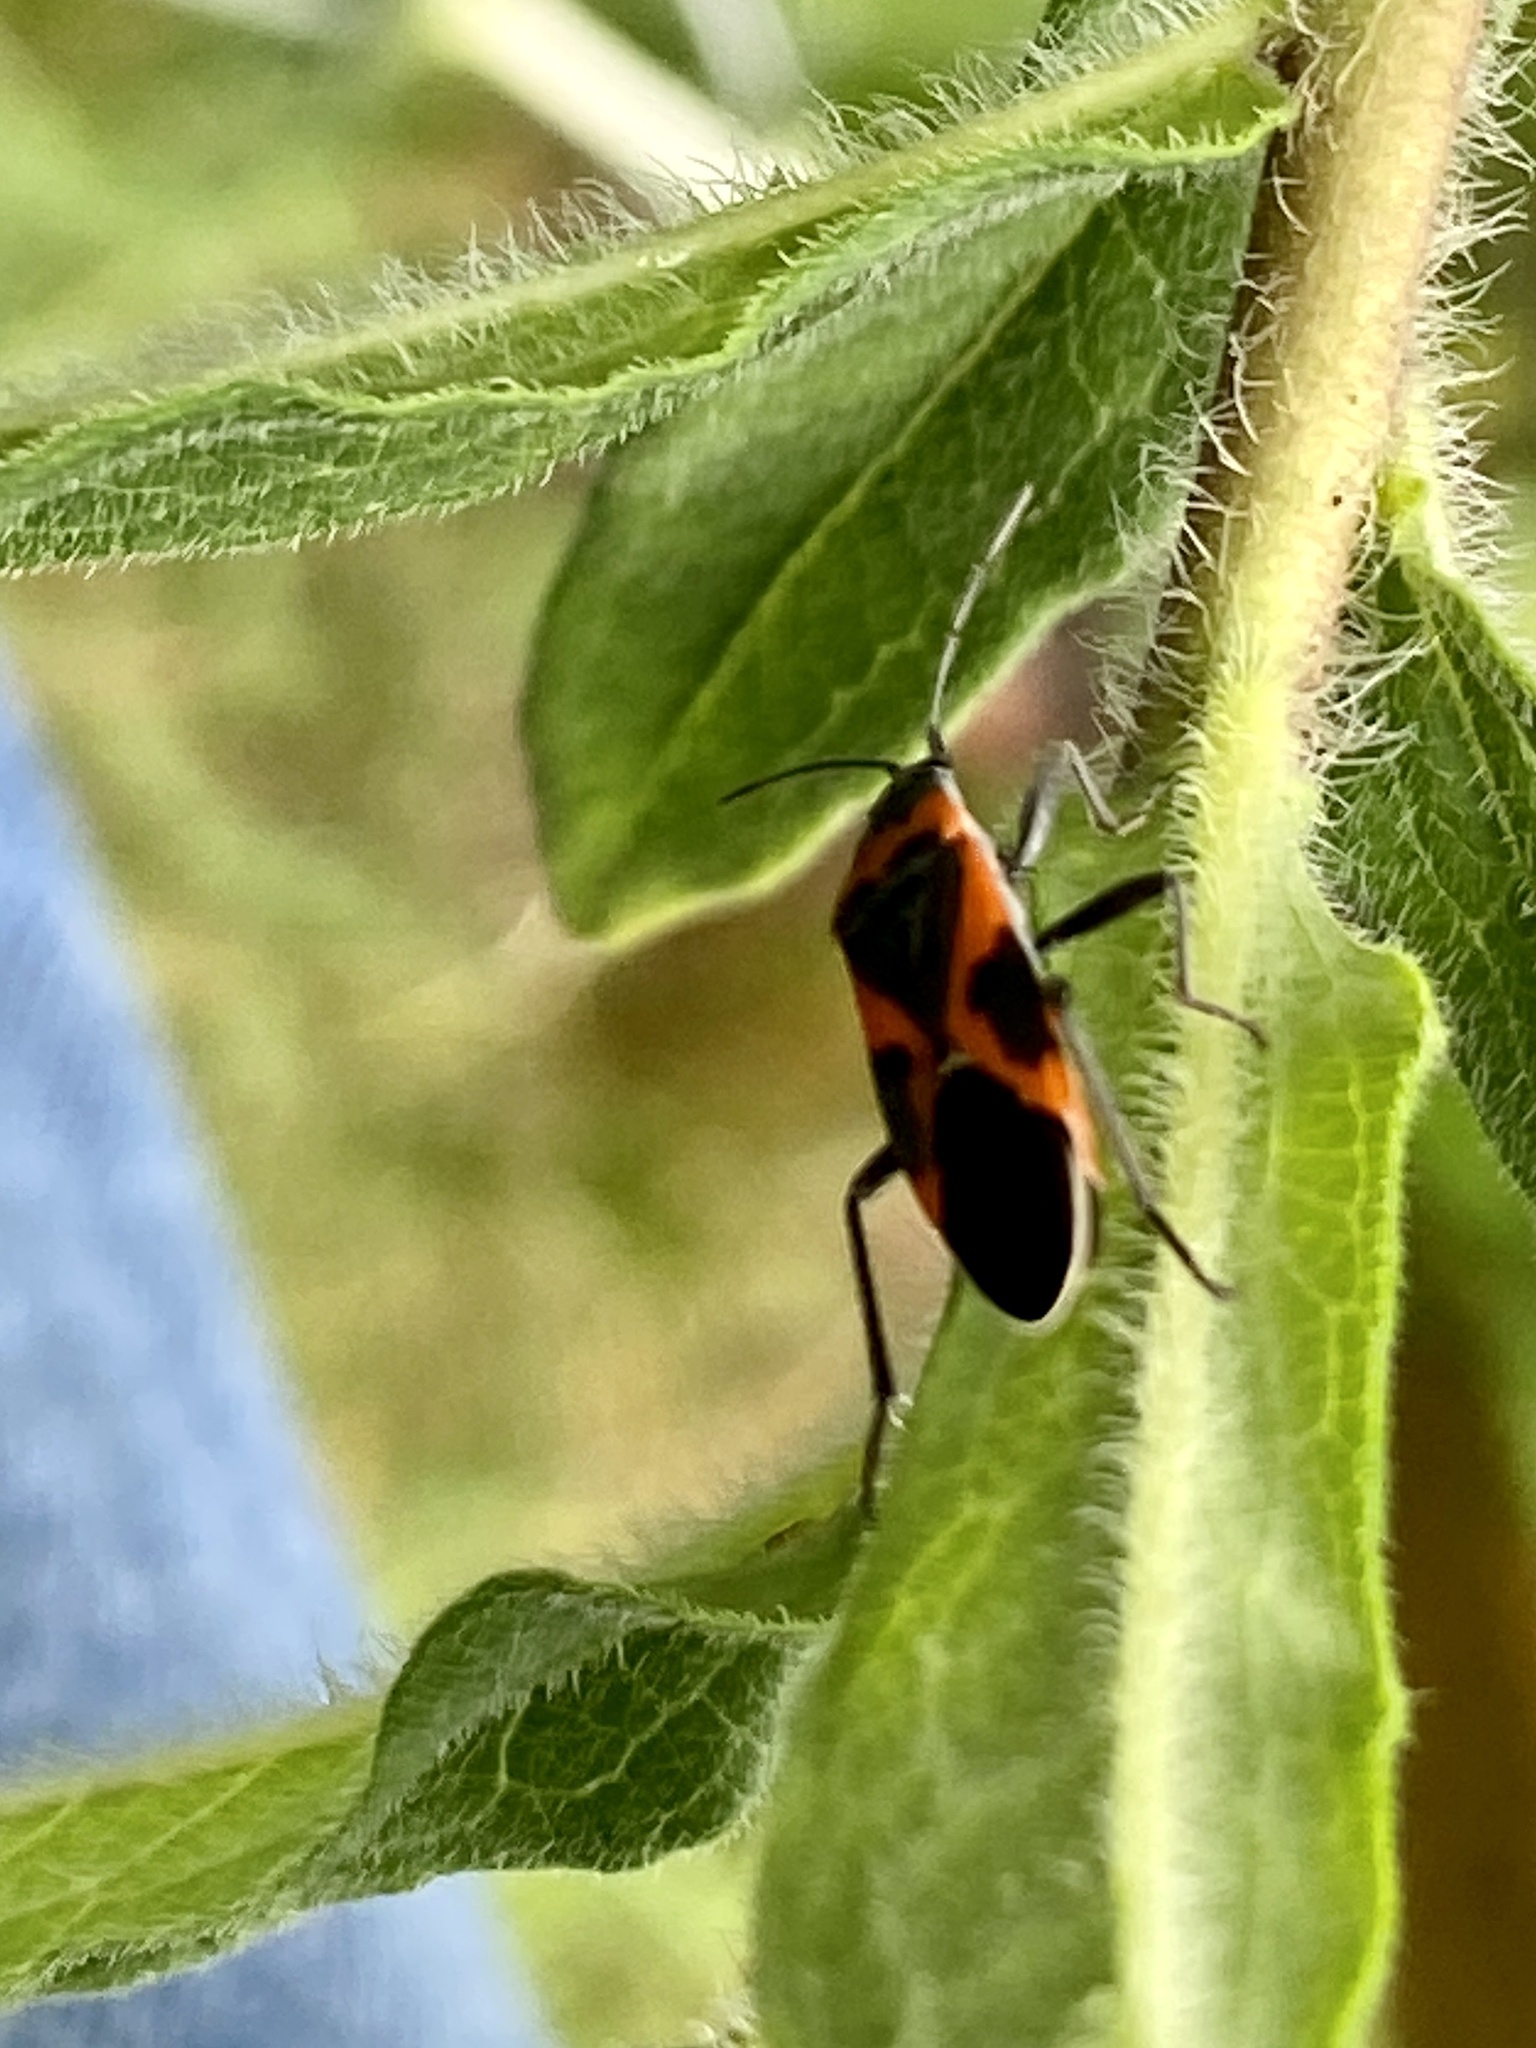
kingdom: Animalia
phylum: Arthropoda
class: Insecta
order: Hemiptera
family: Lygaeidae
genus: Lygaeus
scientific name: Lygaeus kalmii
